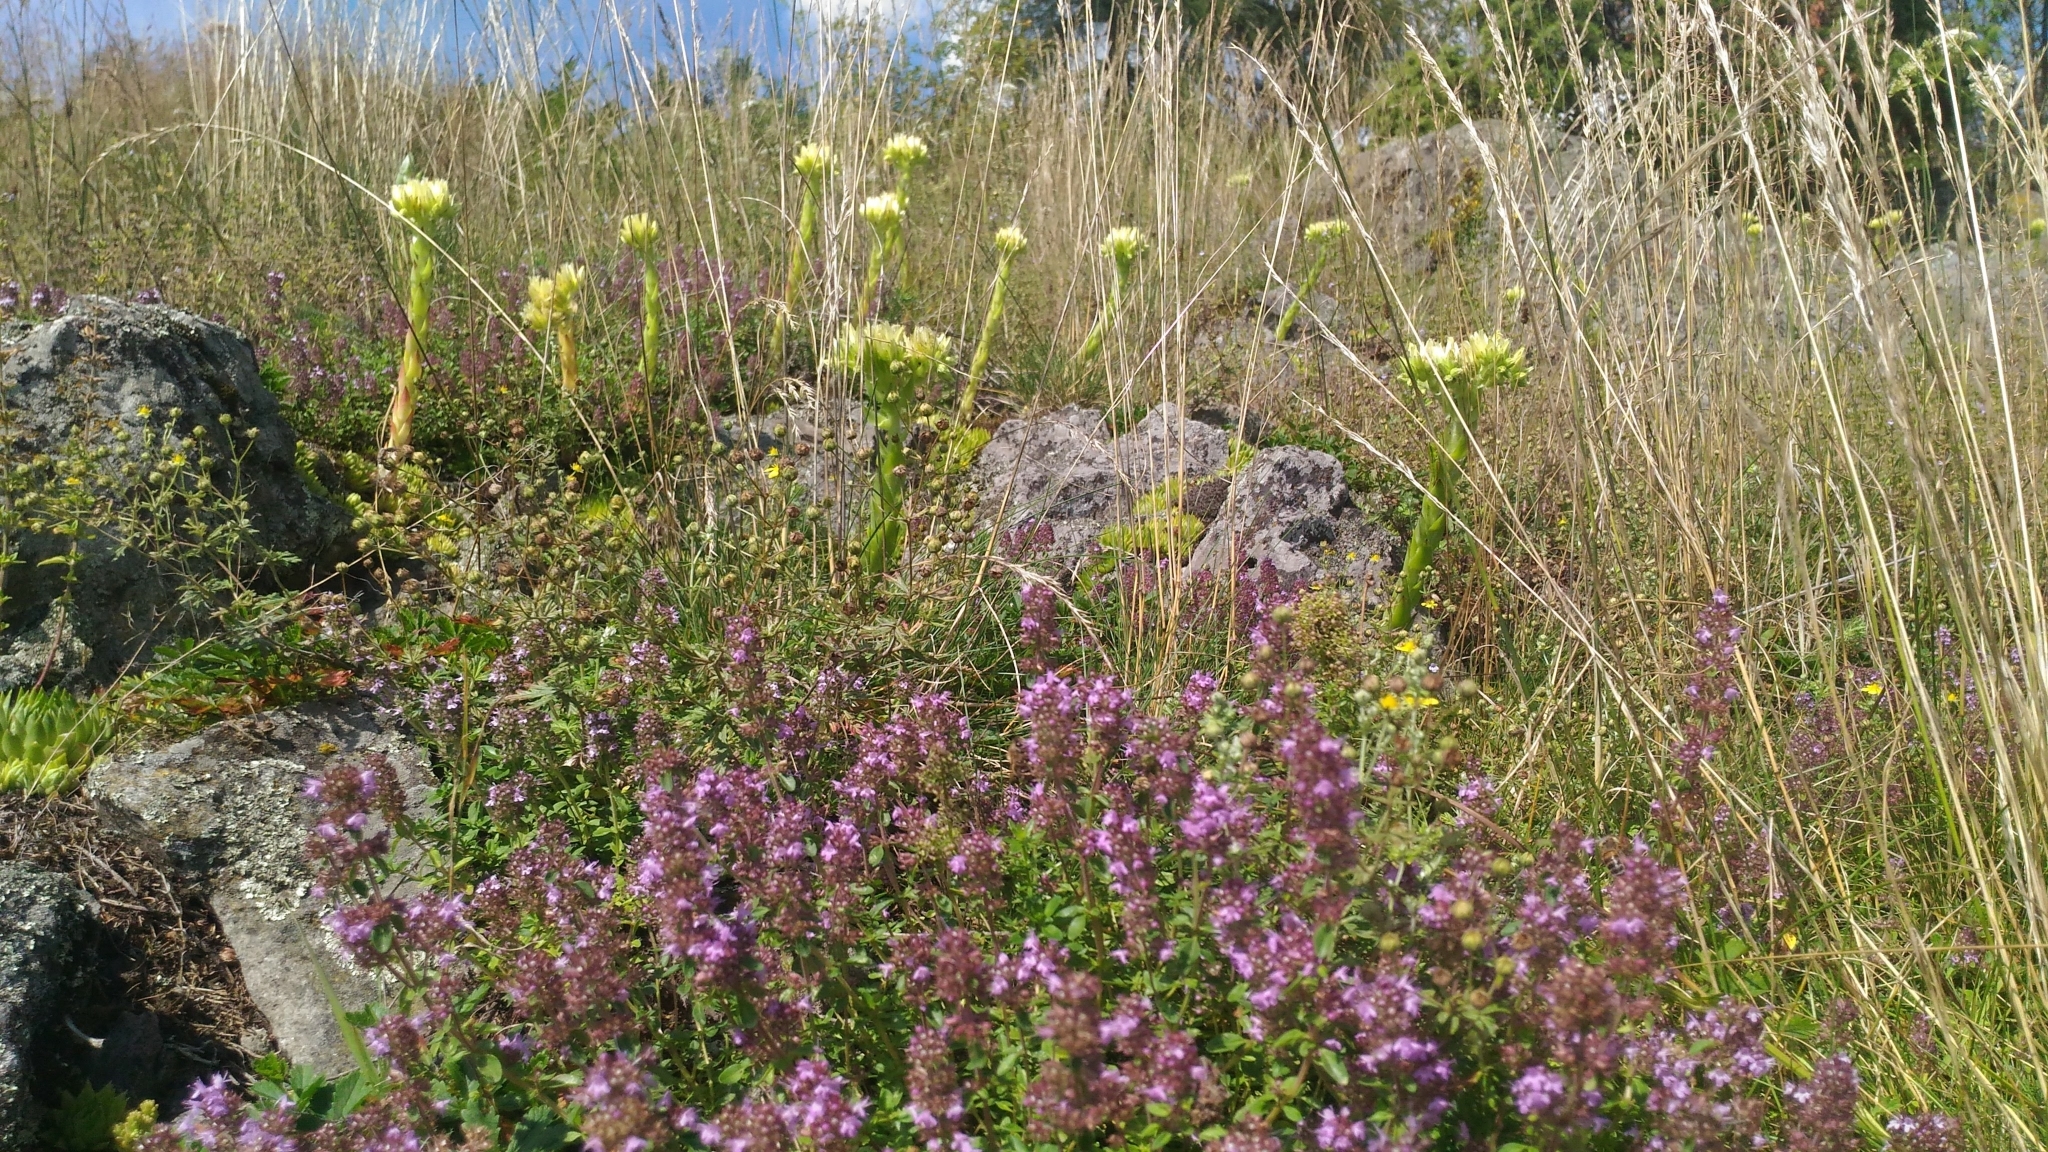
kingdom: Plantae
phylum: Tracheophyta
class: Magnoliopsida
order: Saxifragales
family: Crassulaceae
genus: Sempervivum
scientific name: Sempervivum globiferum
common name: Rolling hen-and-chicks
